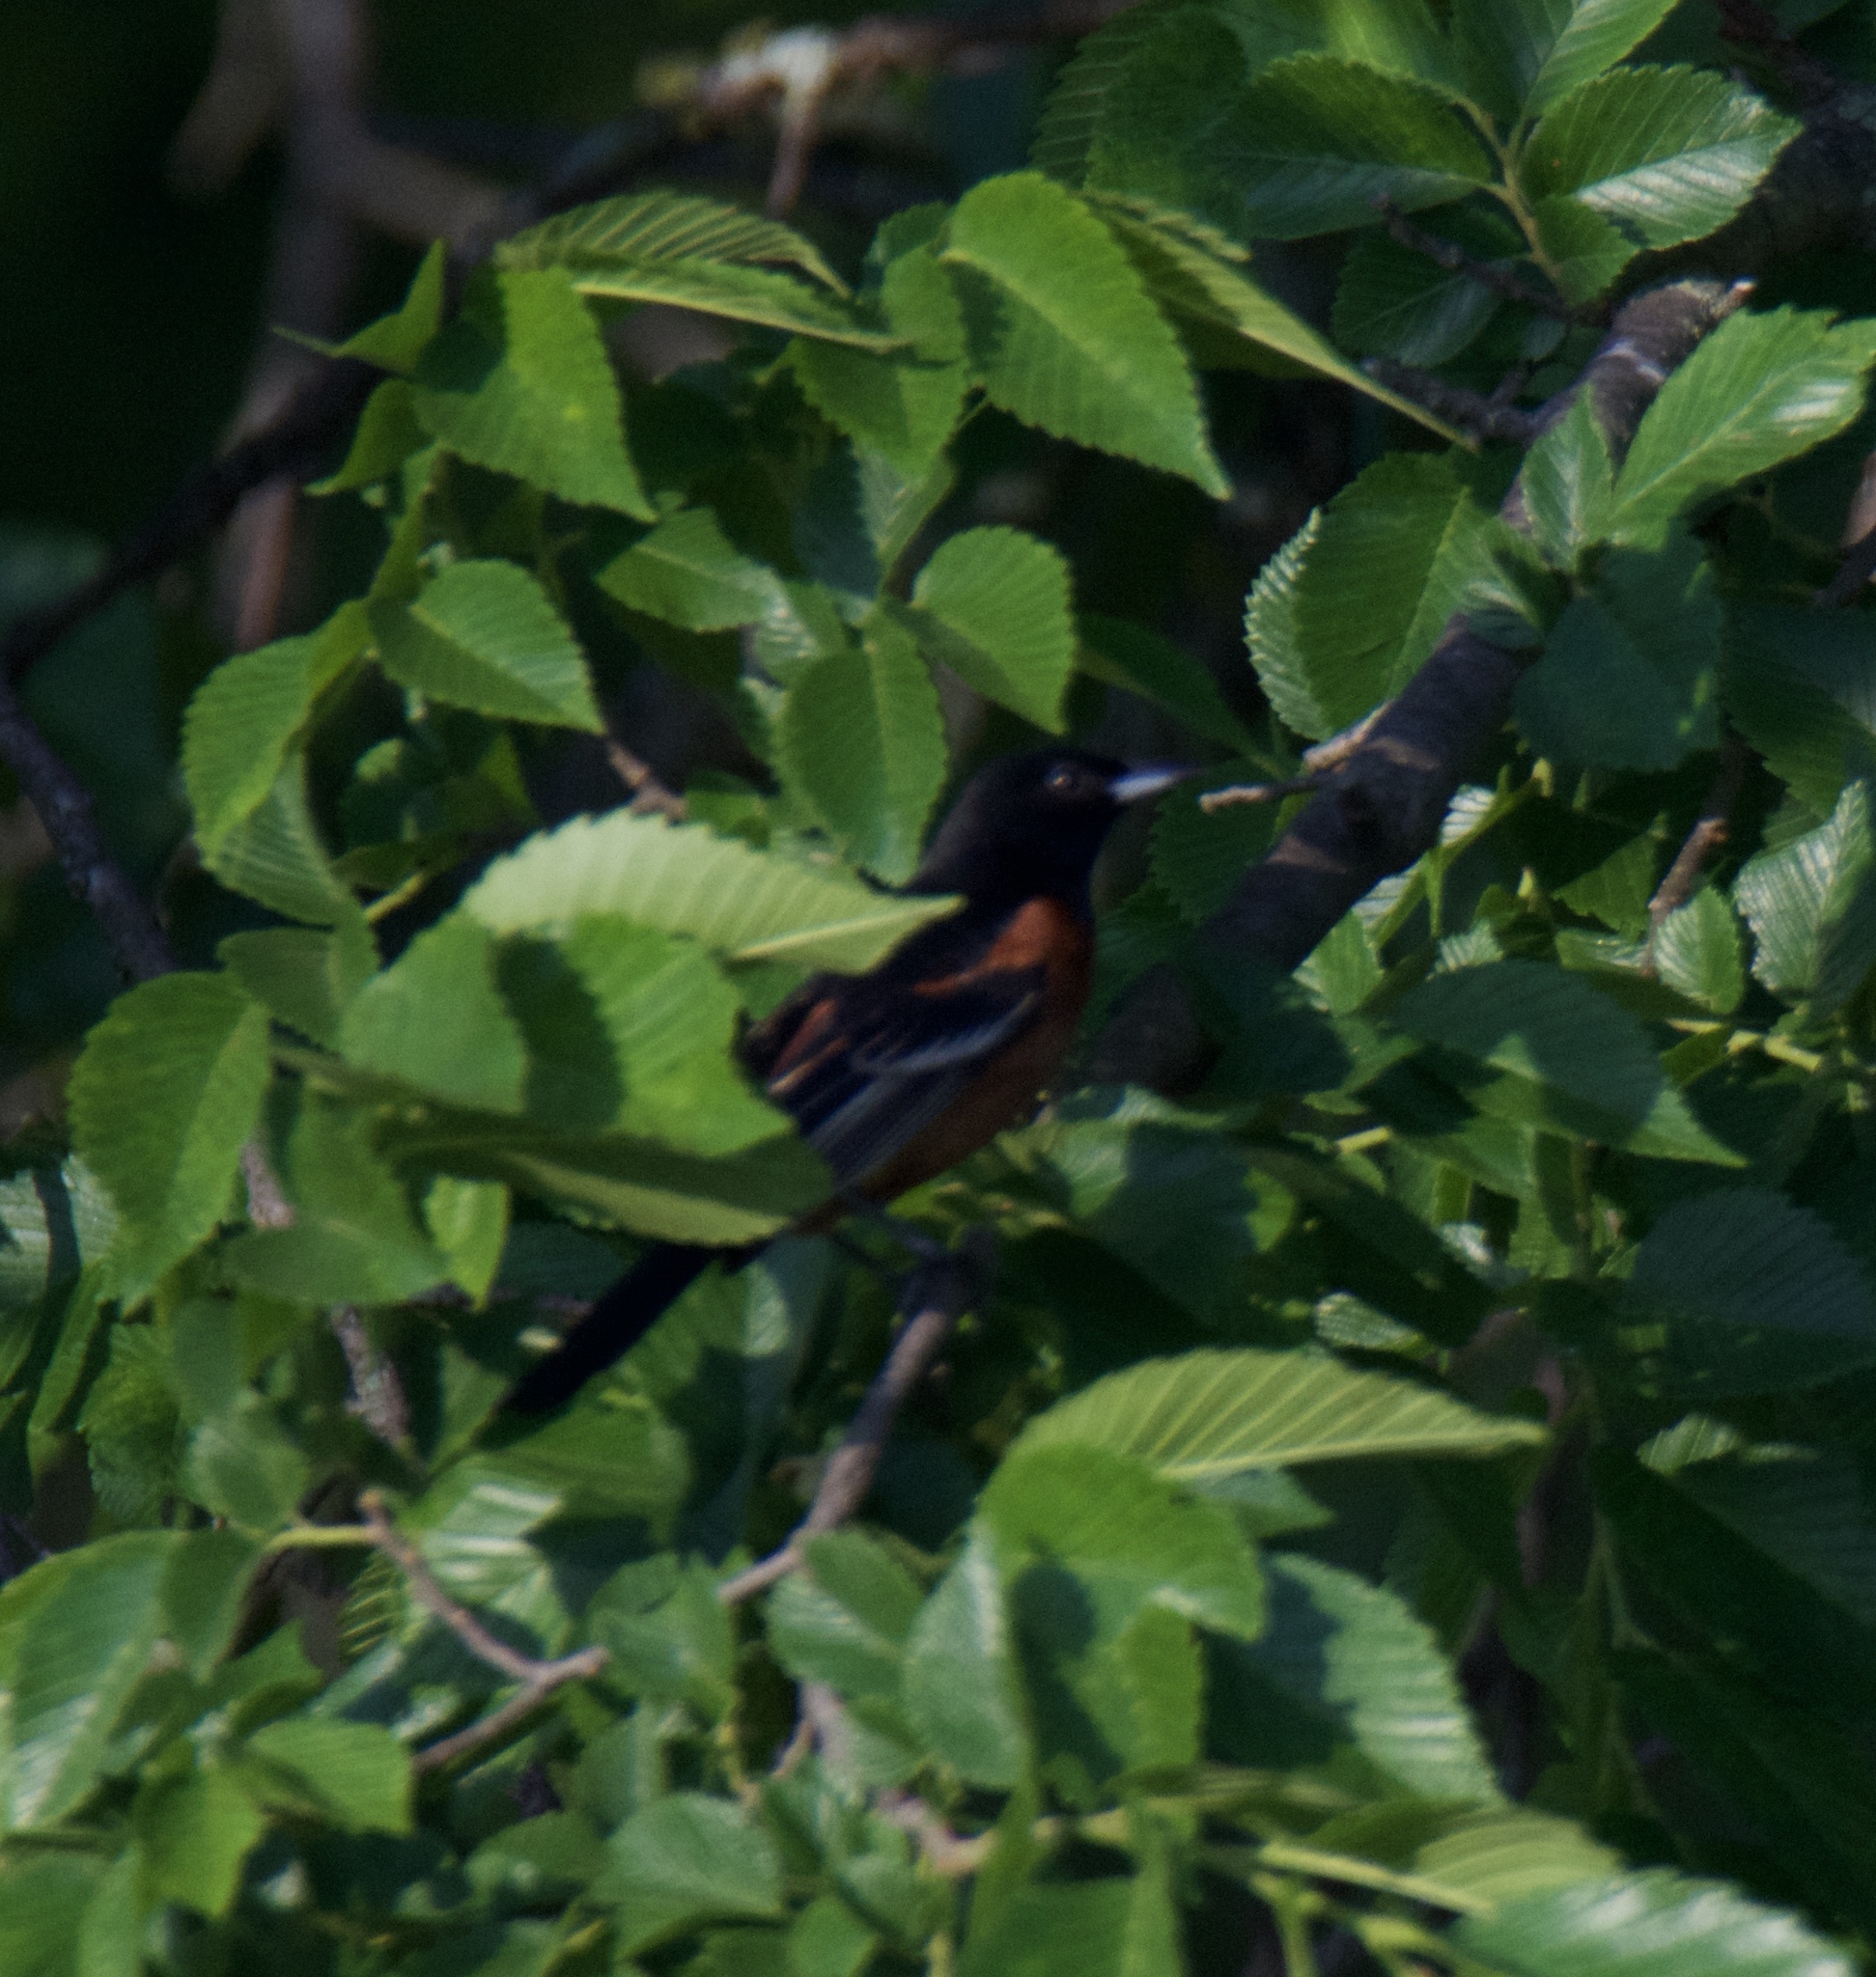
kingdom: Animalia
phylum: Chordata
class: Aves
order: Passeriformes
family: Icteridae
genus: Icterus
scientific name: Icterus spurius
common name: Orchard oriole
